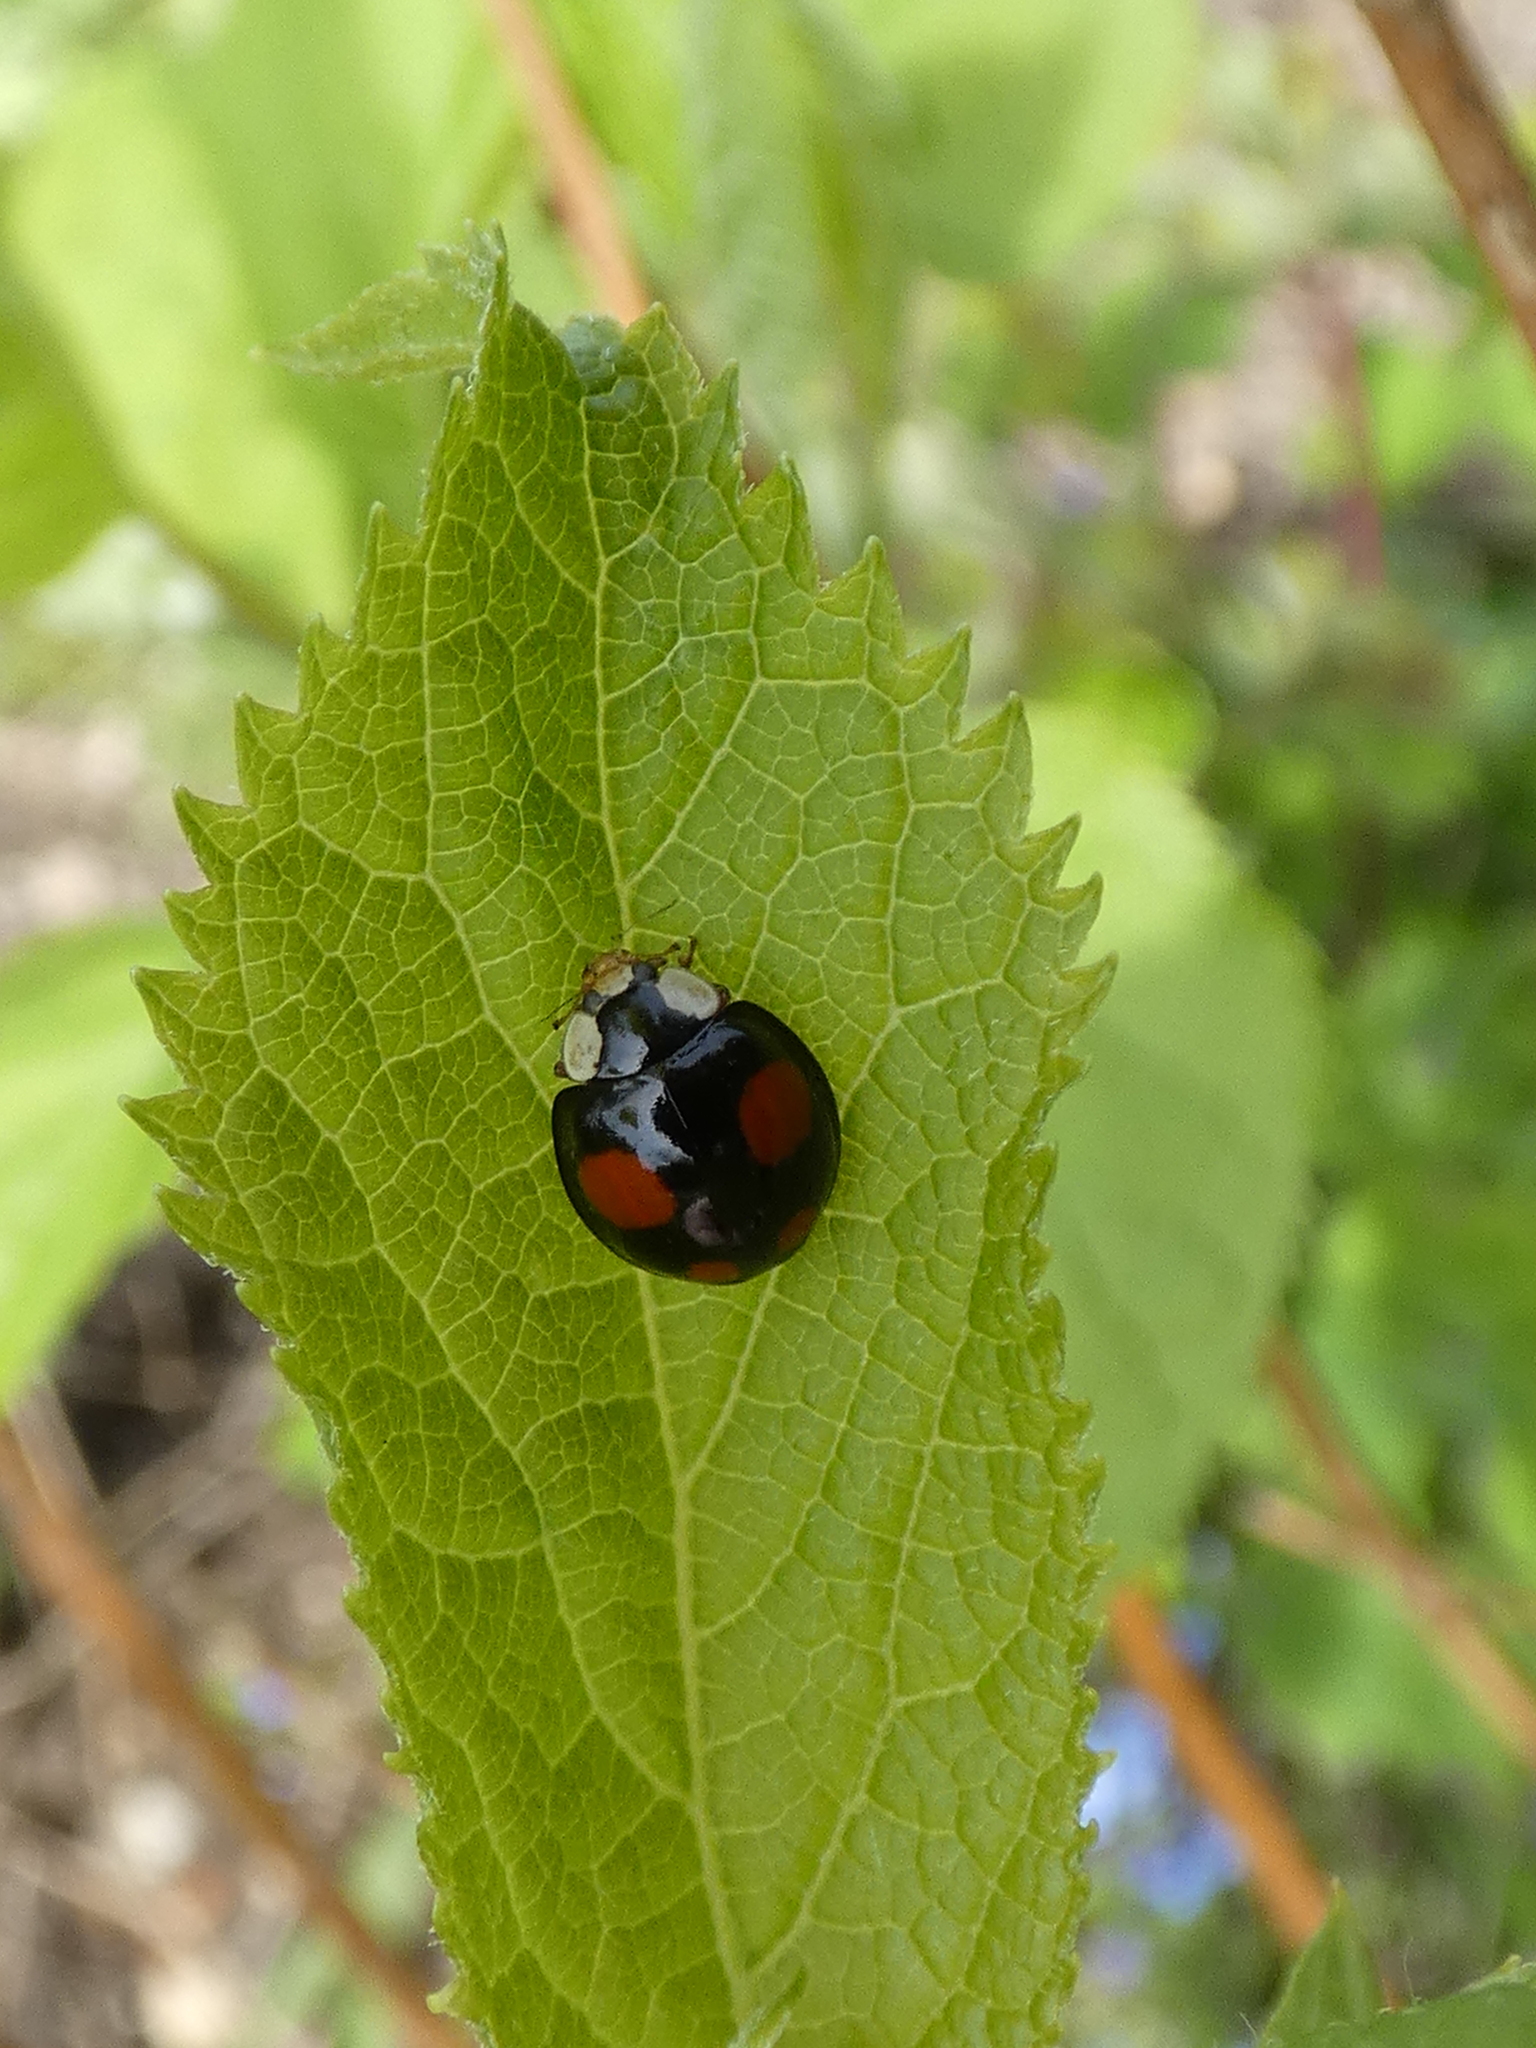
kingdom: Animalia
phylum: Arthropoda
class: Insecta
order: Coleoptera
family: Coccinellidae
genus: Harmonia
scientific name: Harmonia axyridis
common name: Harlequin ladybird
